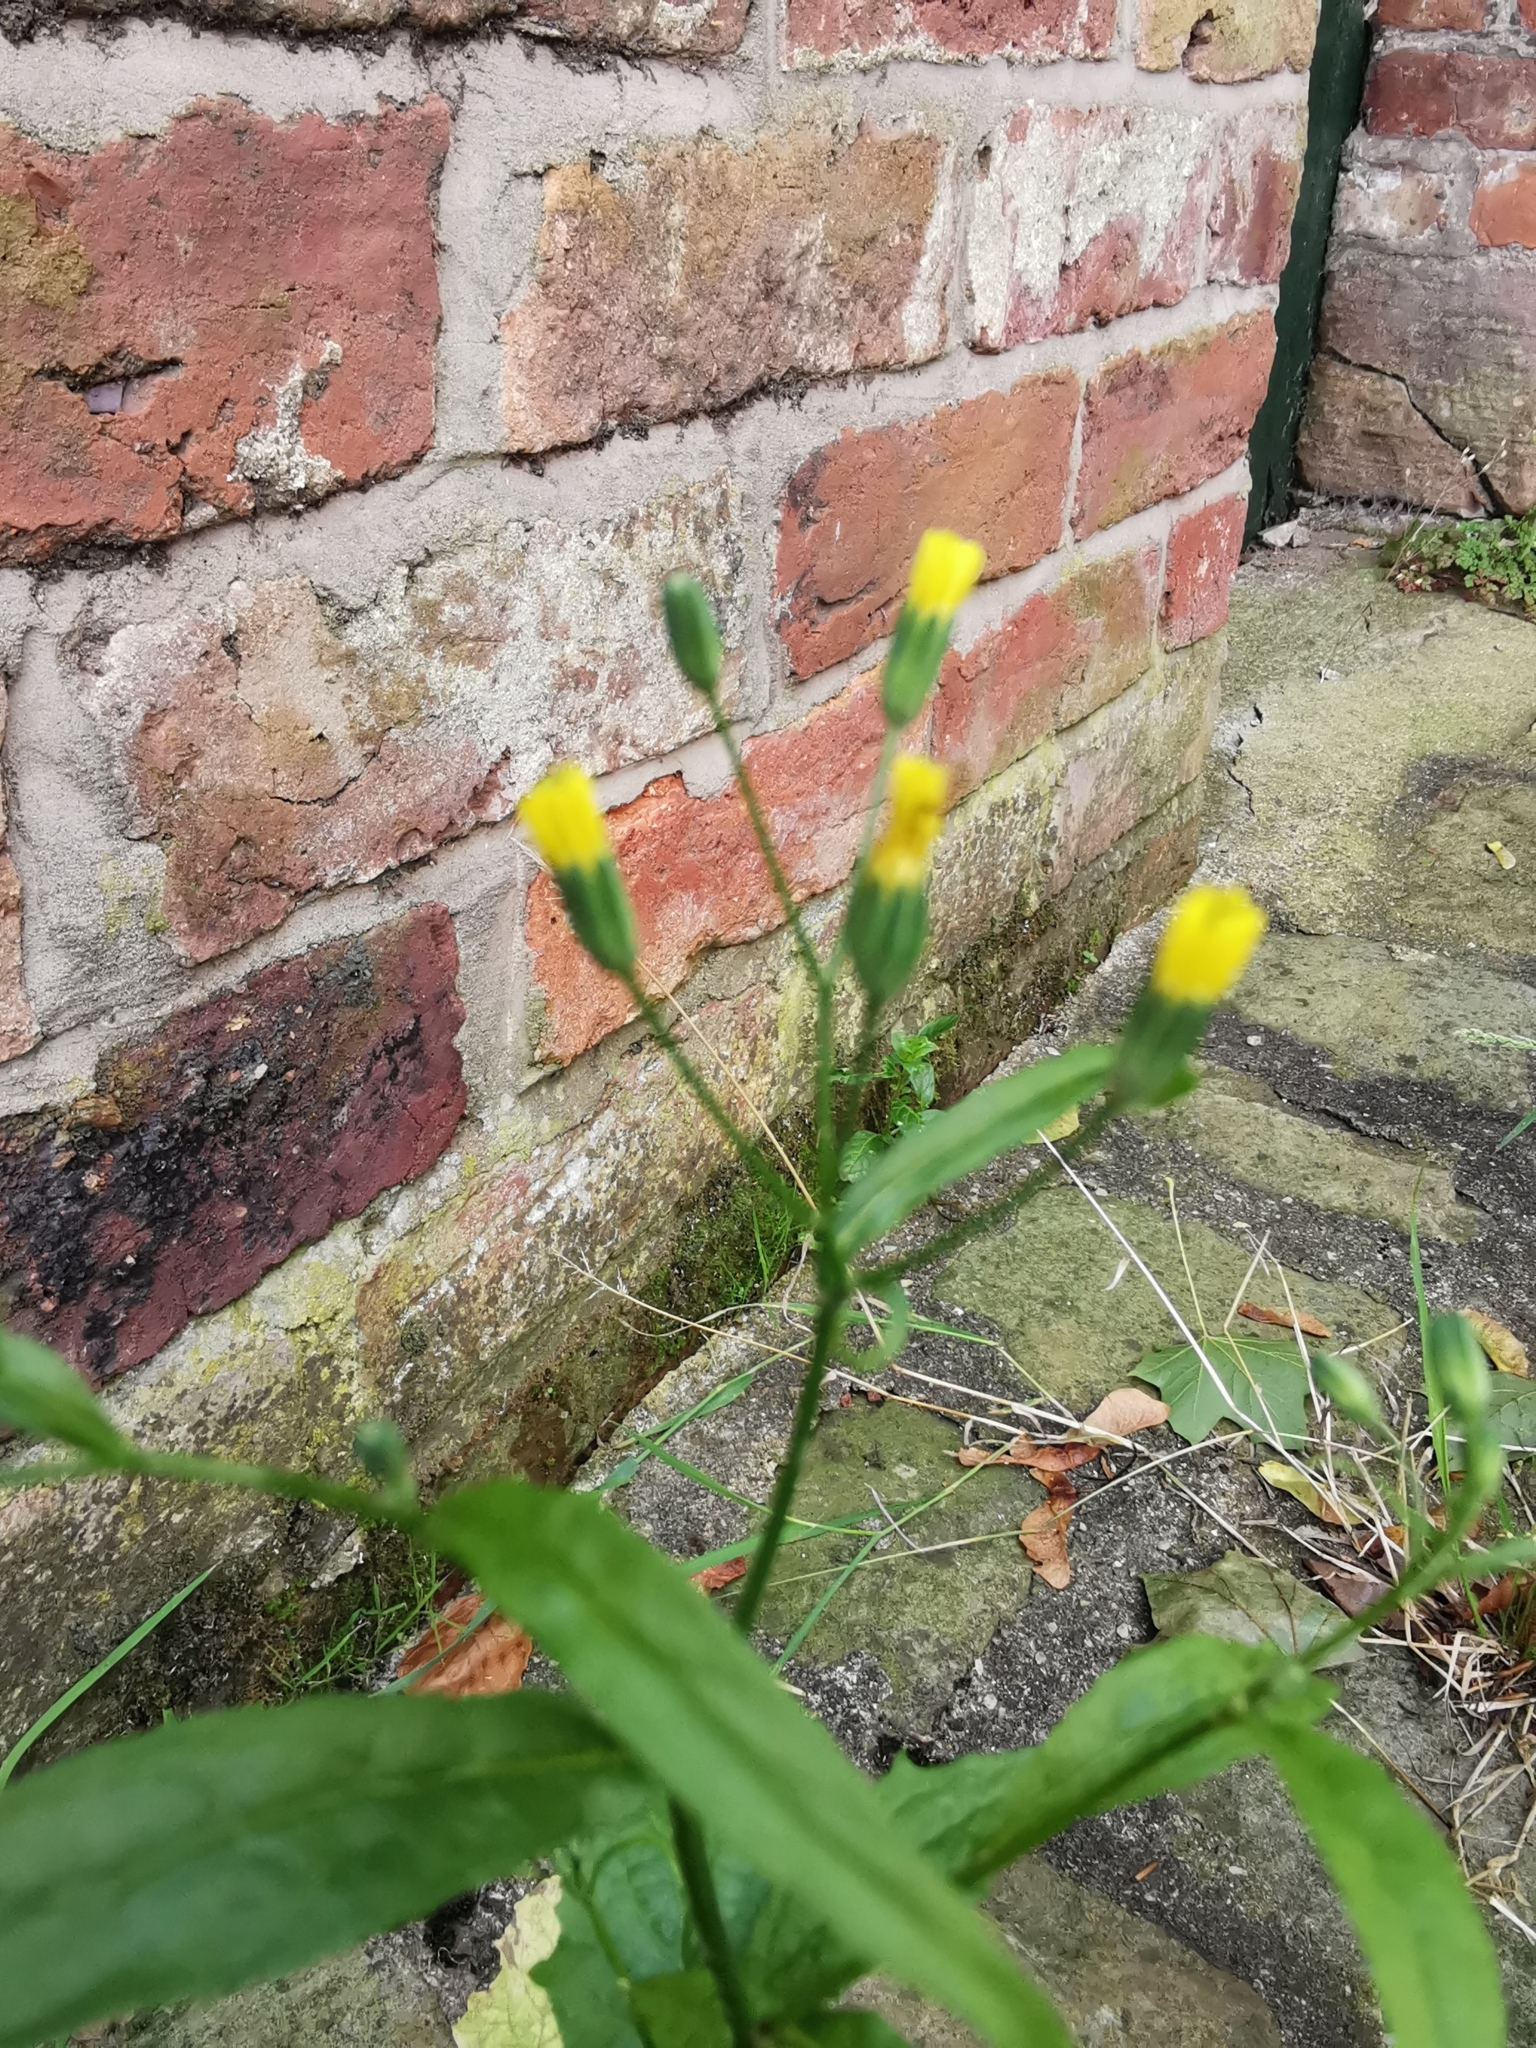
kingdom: Plantae
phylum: Tracheophyta
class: Magnoliopsida
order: Asterales
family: Asteraceae
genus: Lapsana
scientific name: Lapsana communis
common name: Nipplewort
